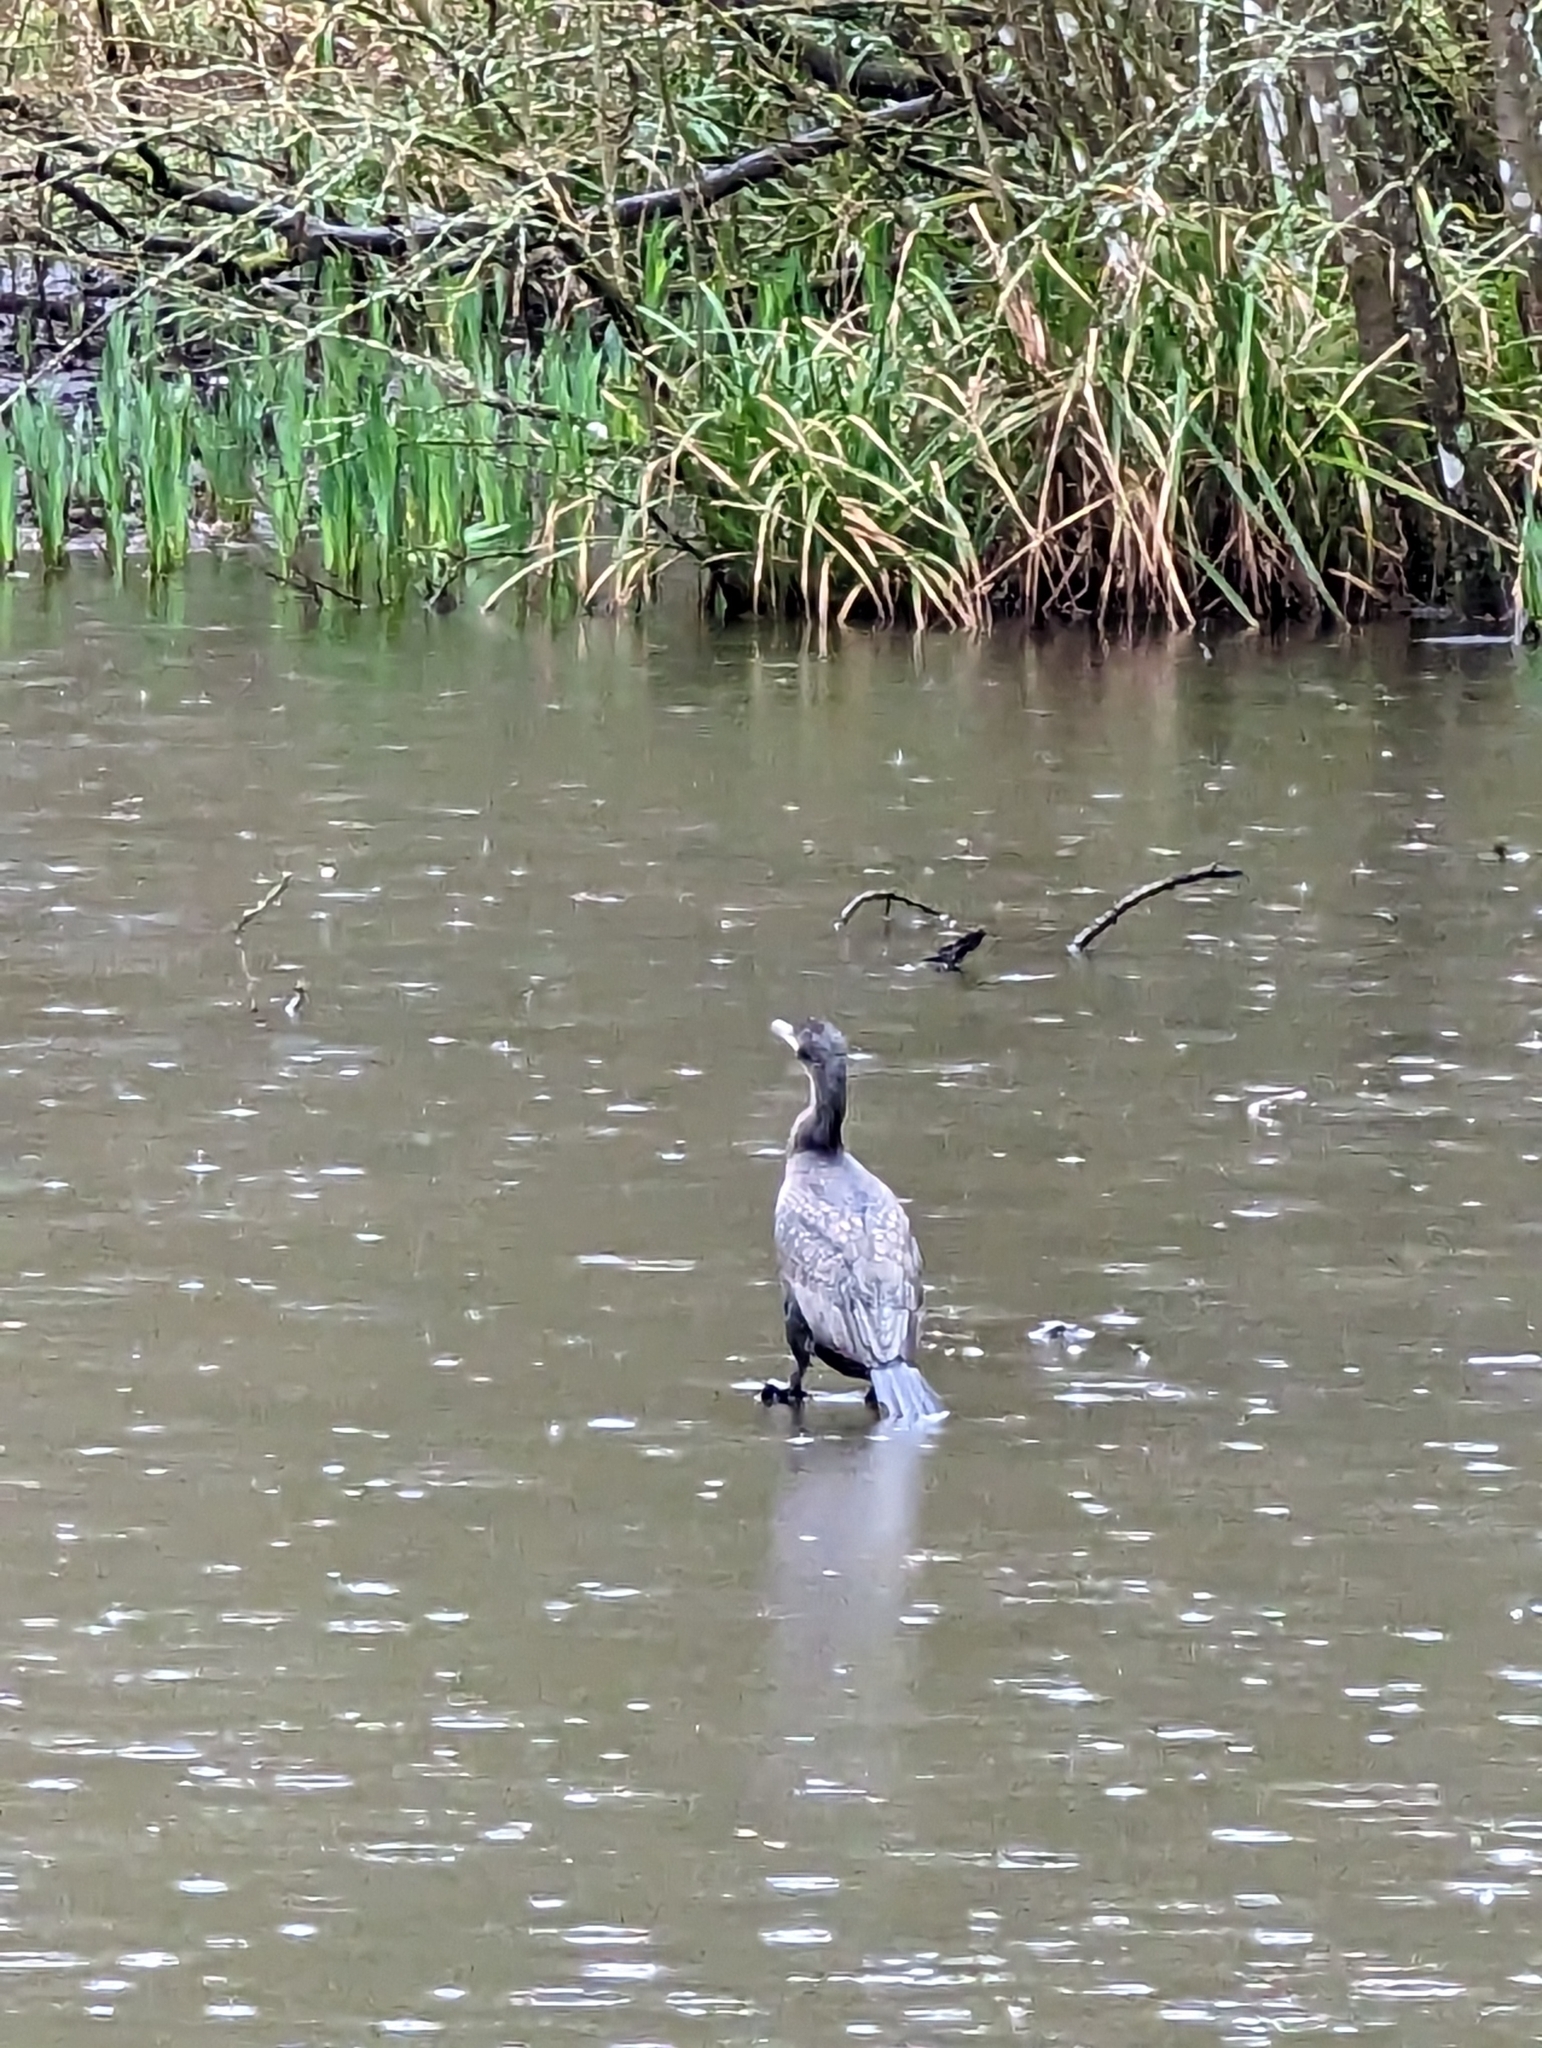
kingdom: Animalia
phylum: Chordata
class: Aves
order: Suliformes
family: Phalacrocoracidae
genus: Phalacrocorax
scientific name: Phalacrocorax carbo
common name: Great cormorant
